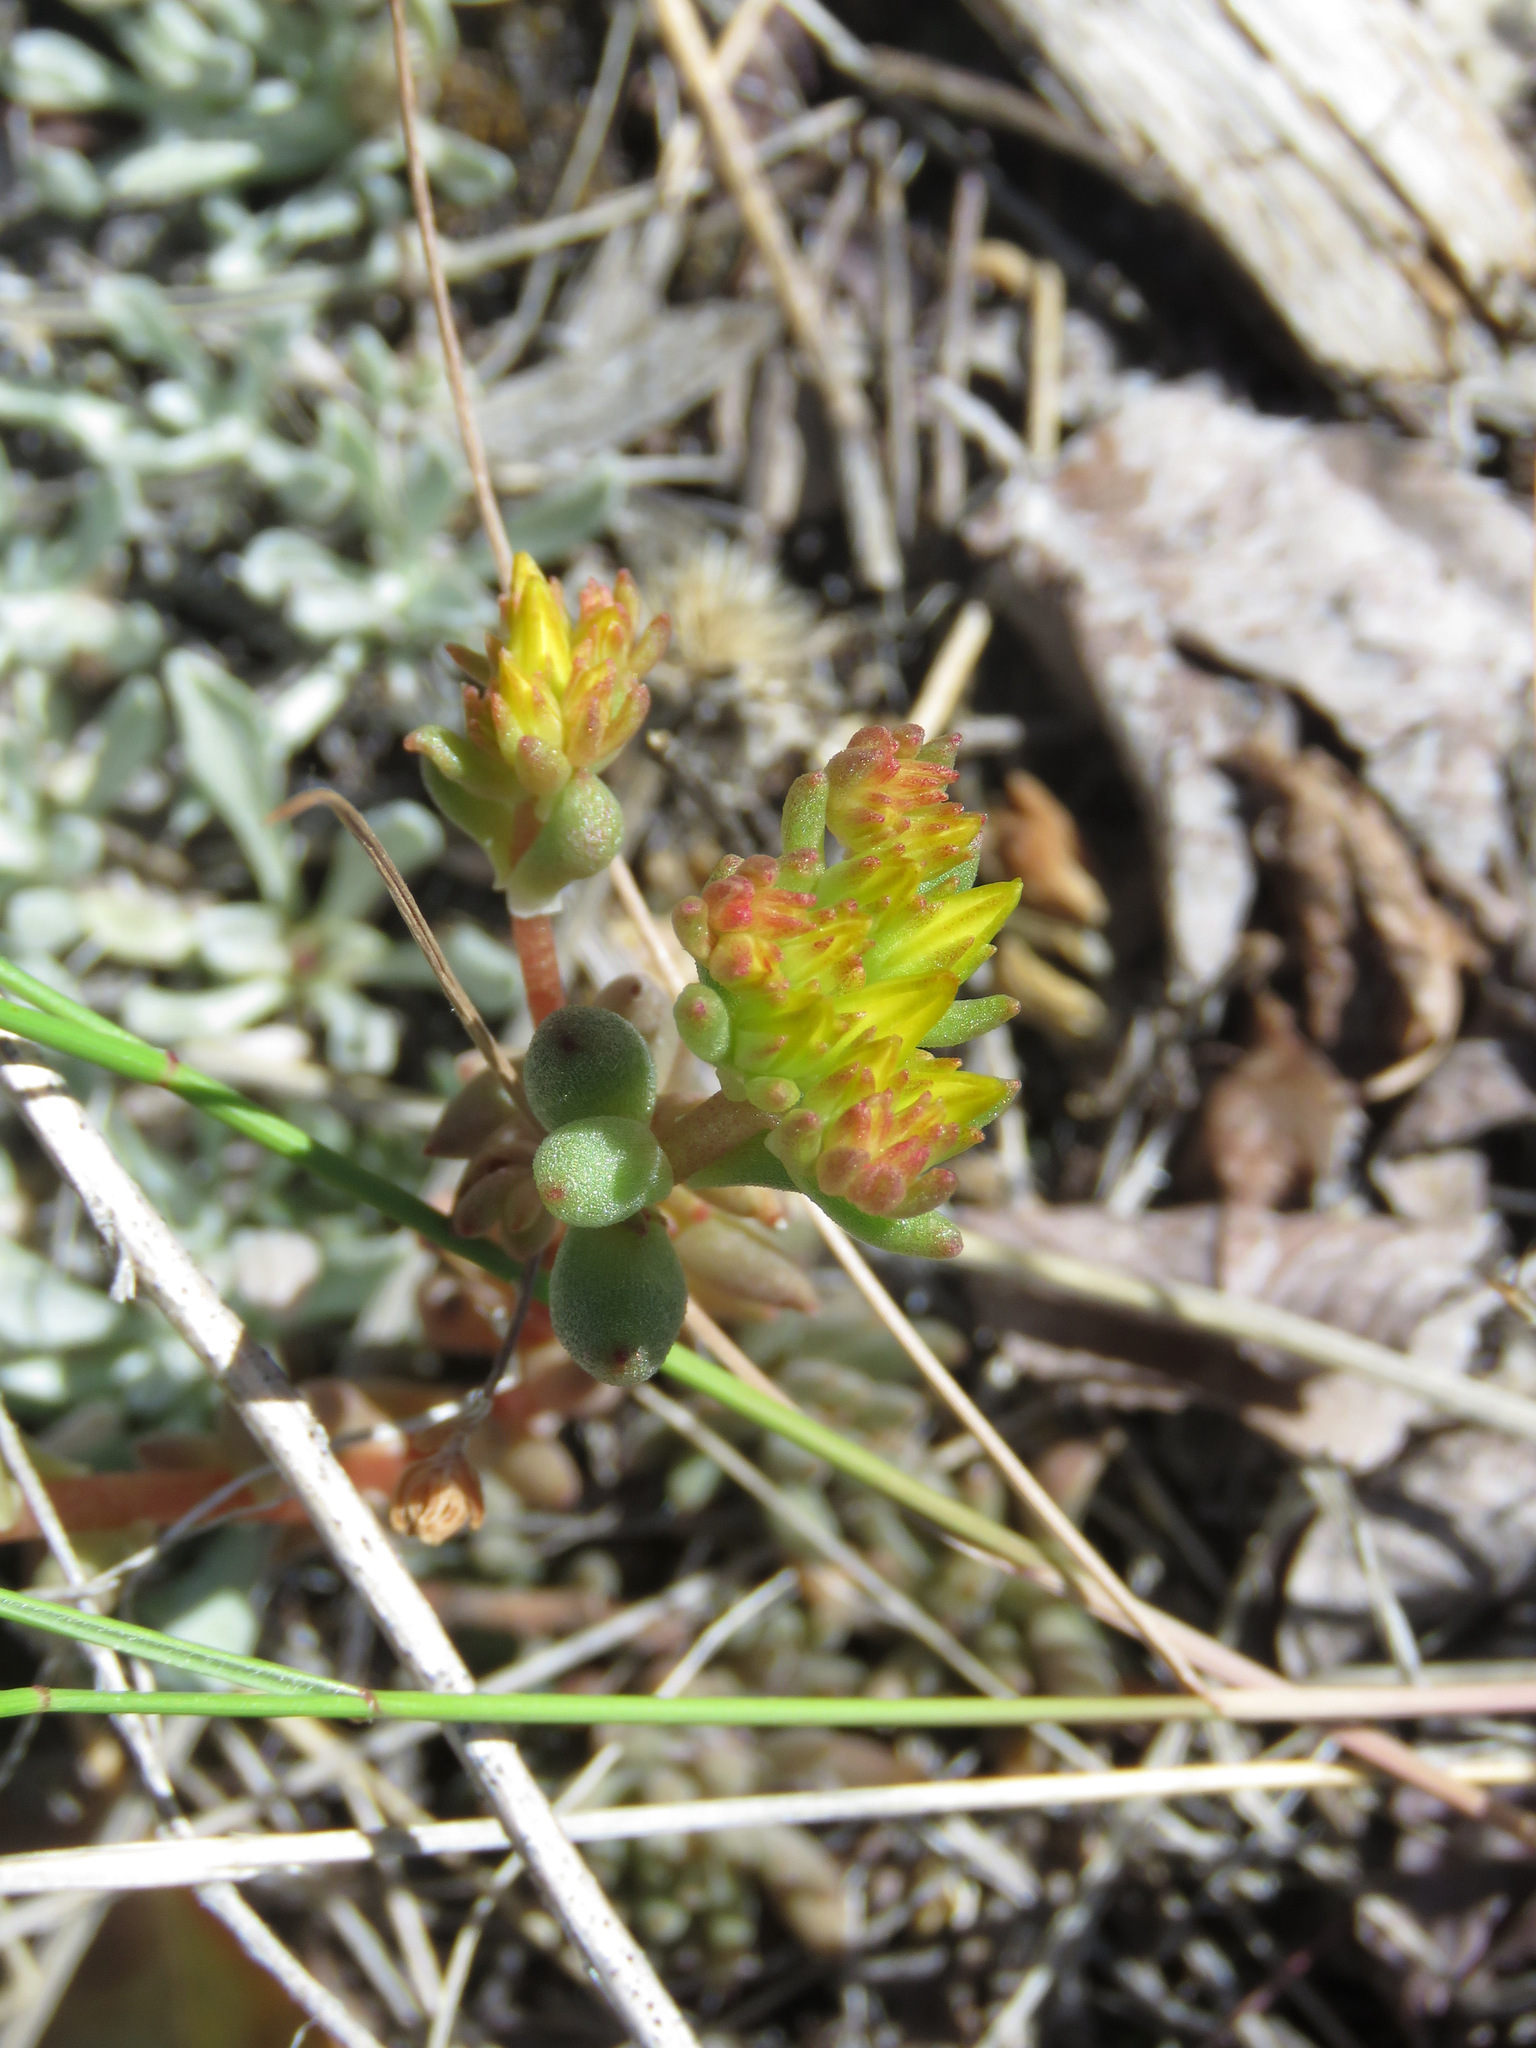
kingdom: Plantae
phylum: Tracheophyta
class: Magnoliopsida
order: Saxifragales
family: Crassulaceae
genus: Sedum
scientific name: Sedum lanceolatum
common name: Common stonecrop
